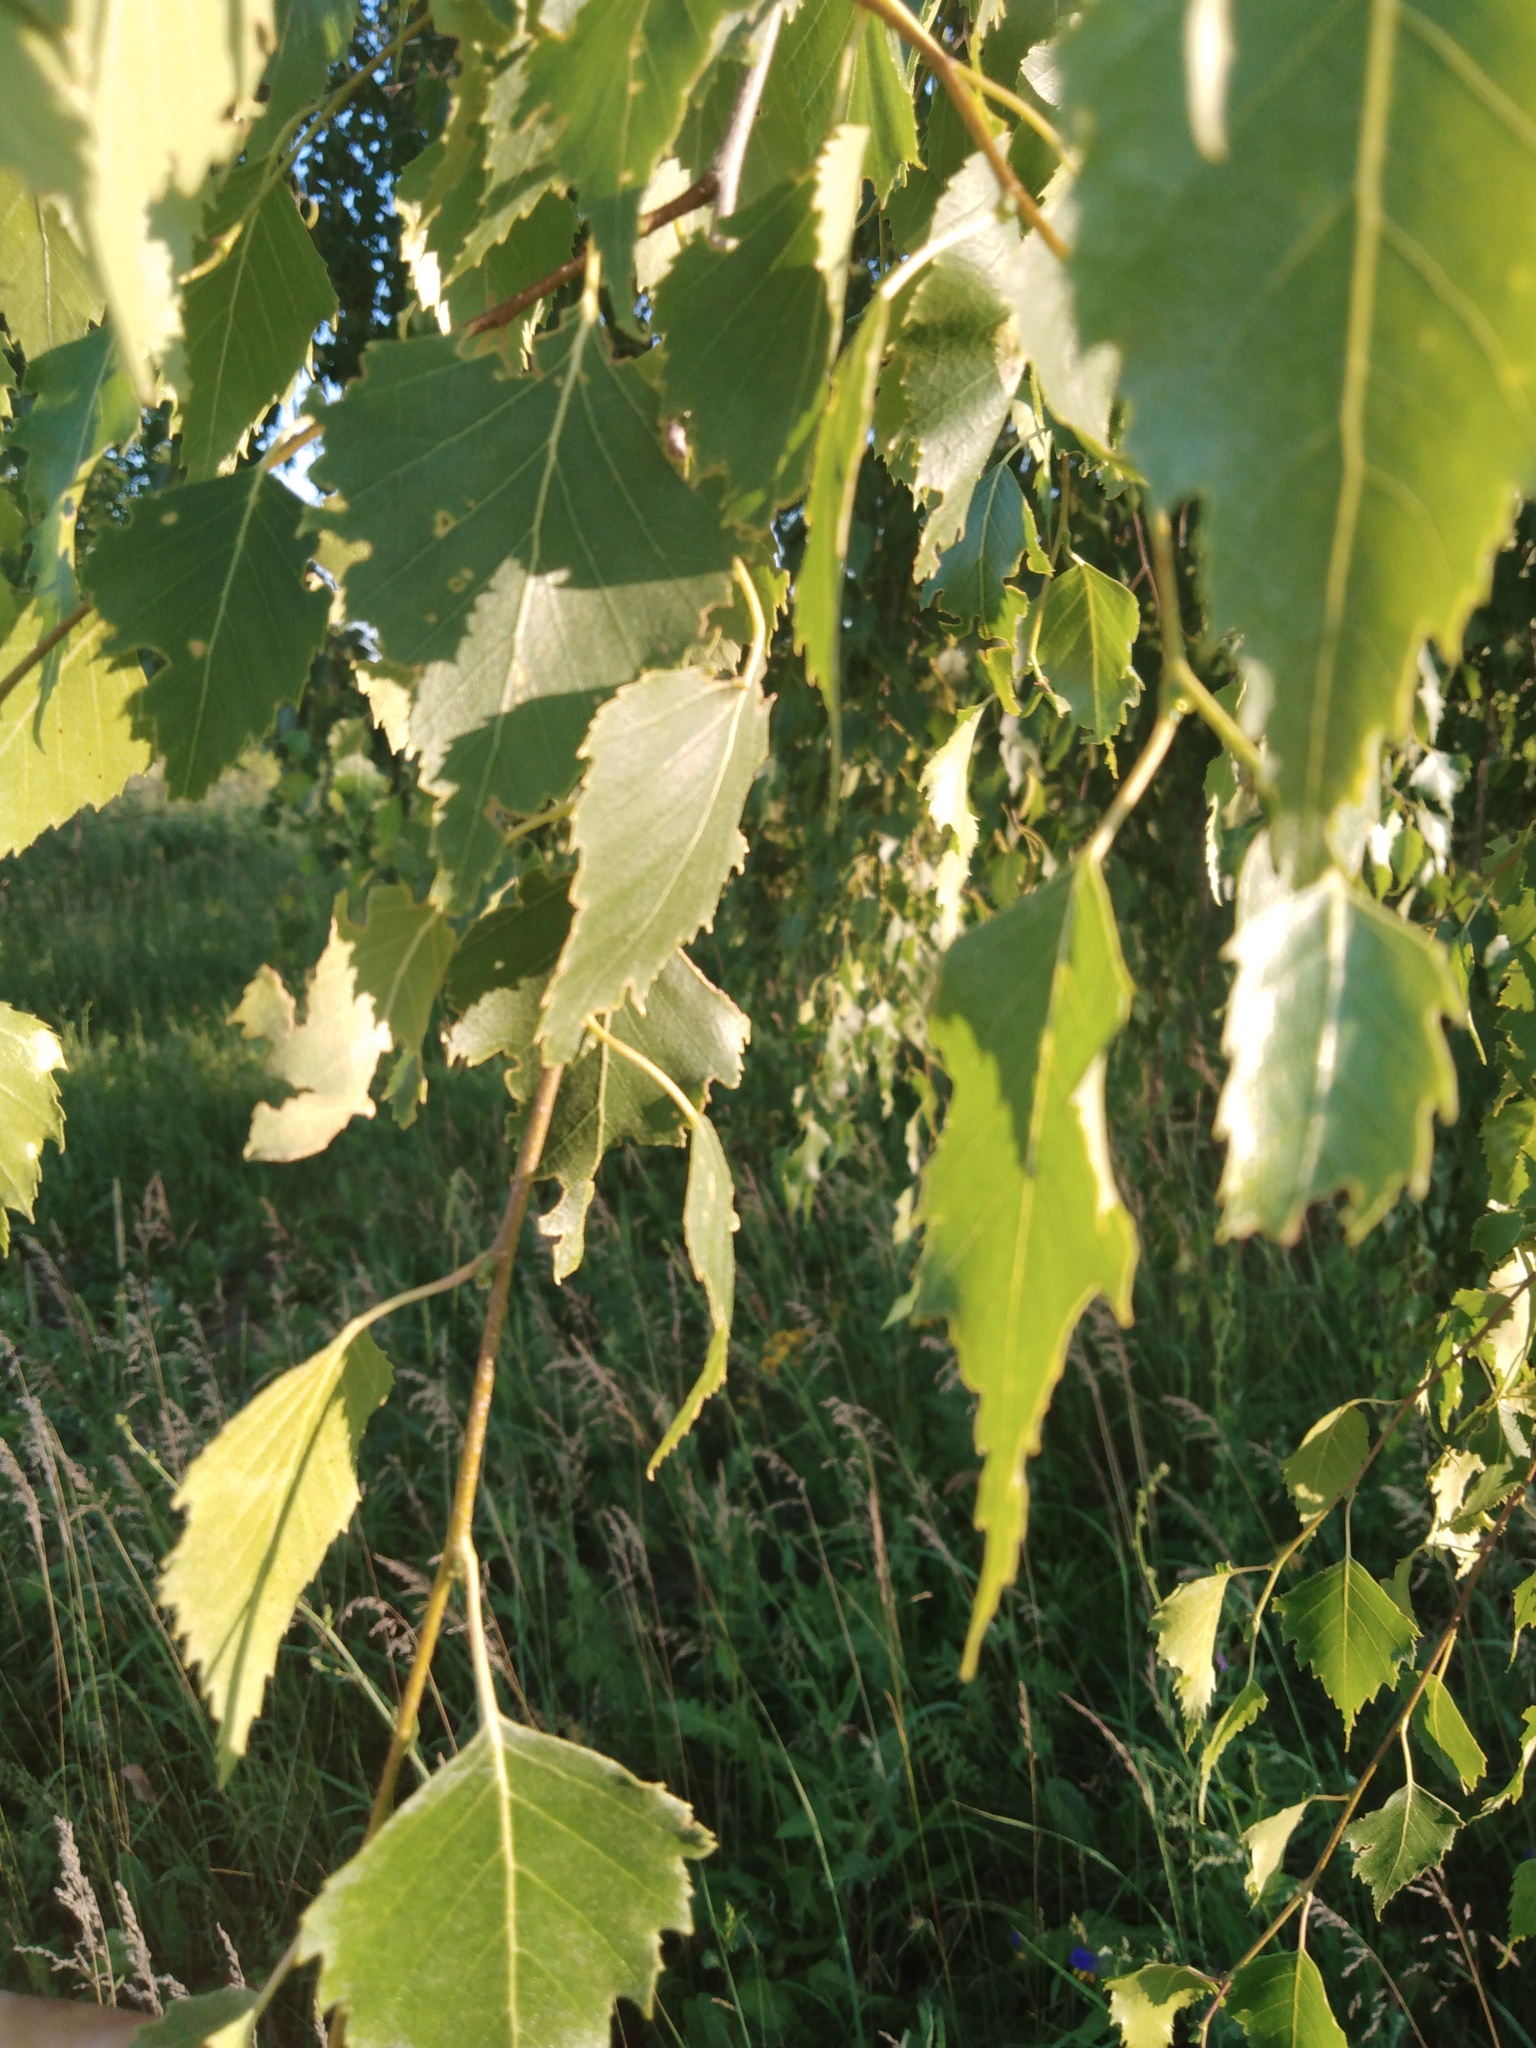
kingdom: Plantae
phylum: Tracheophyta
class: Magnoliopsida
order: Fagales
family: Betulaceae
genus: Betula
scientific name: Betula pendula
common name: Silver birch
